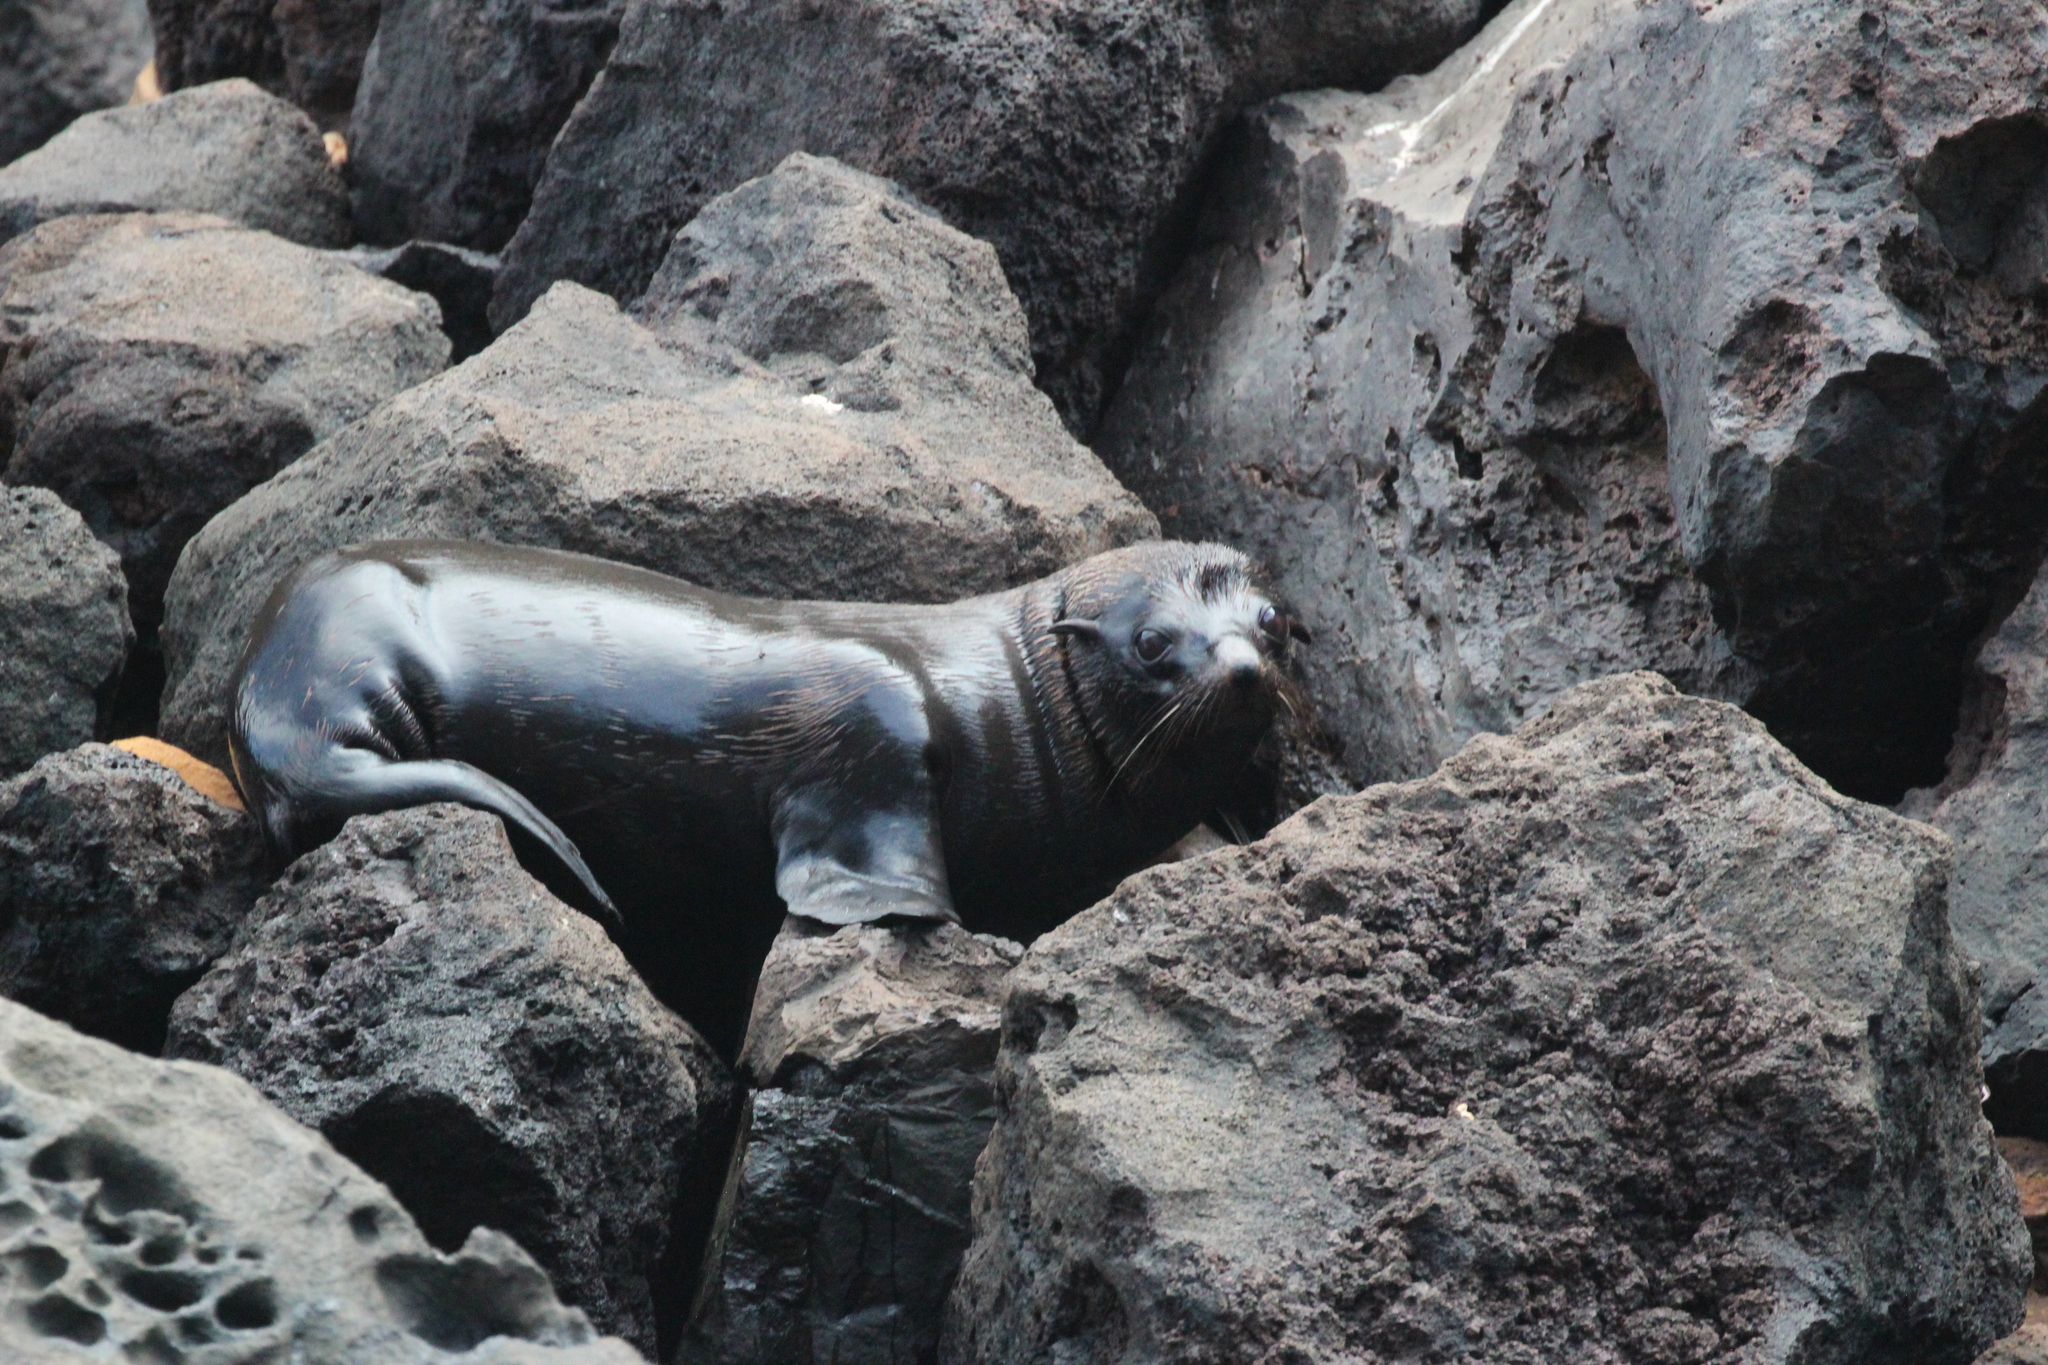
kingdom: Animalia
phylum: Chordata
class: Mammalia
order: Carnivora
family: Otariidae
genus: Arctocephalus
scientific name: Arctocephalus galapagoensis
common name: Galapagos fur seal
